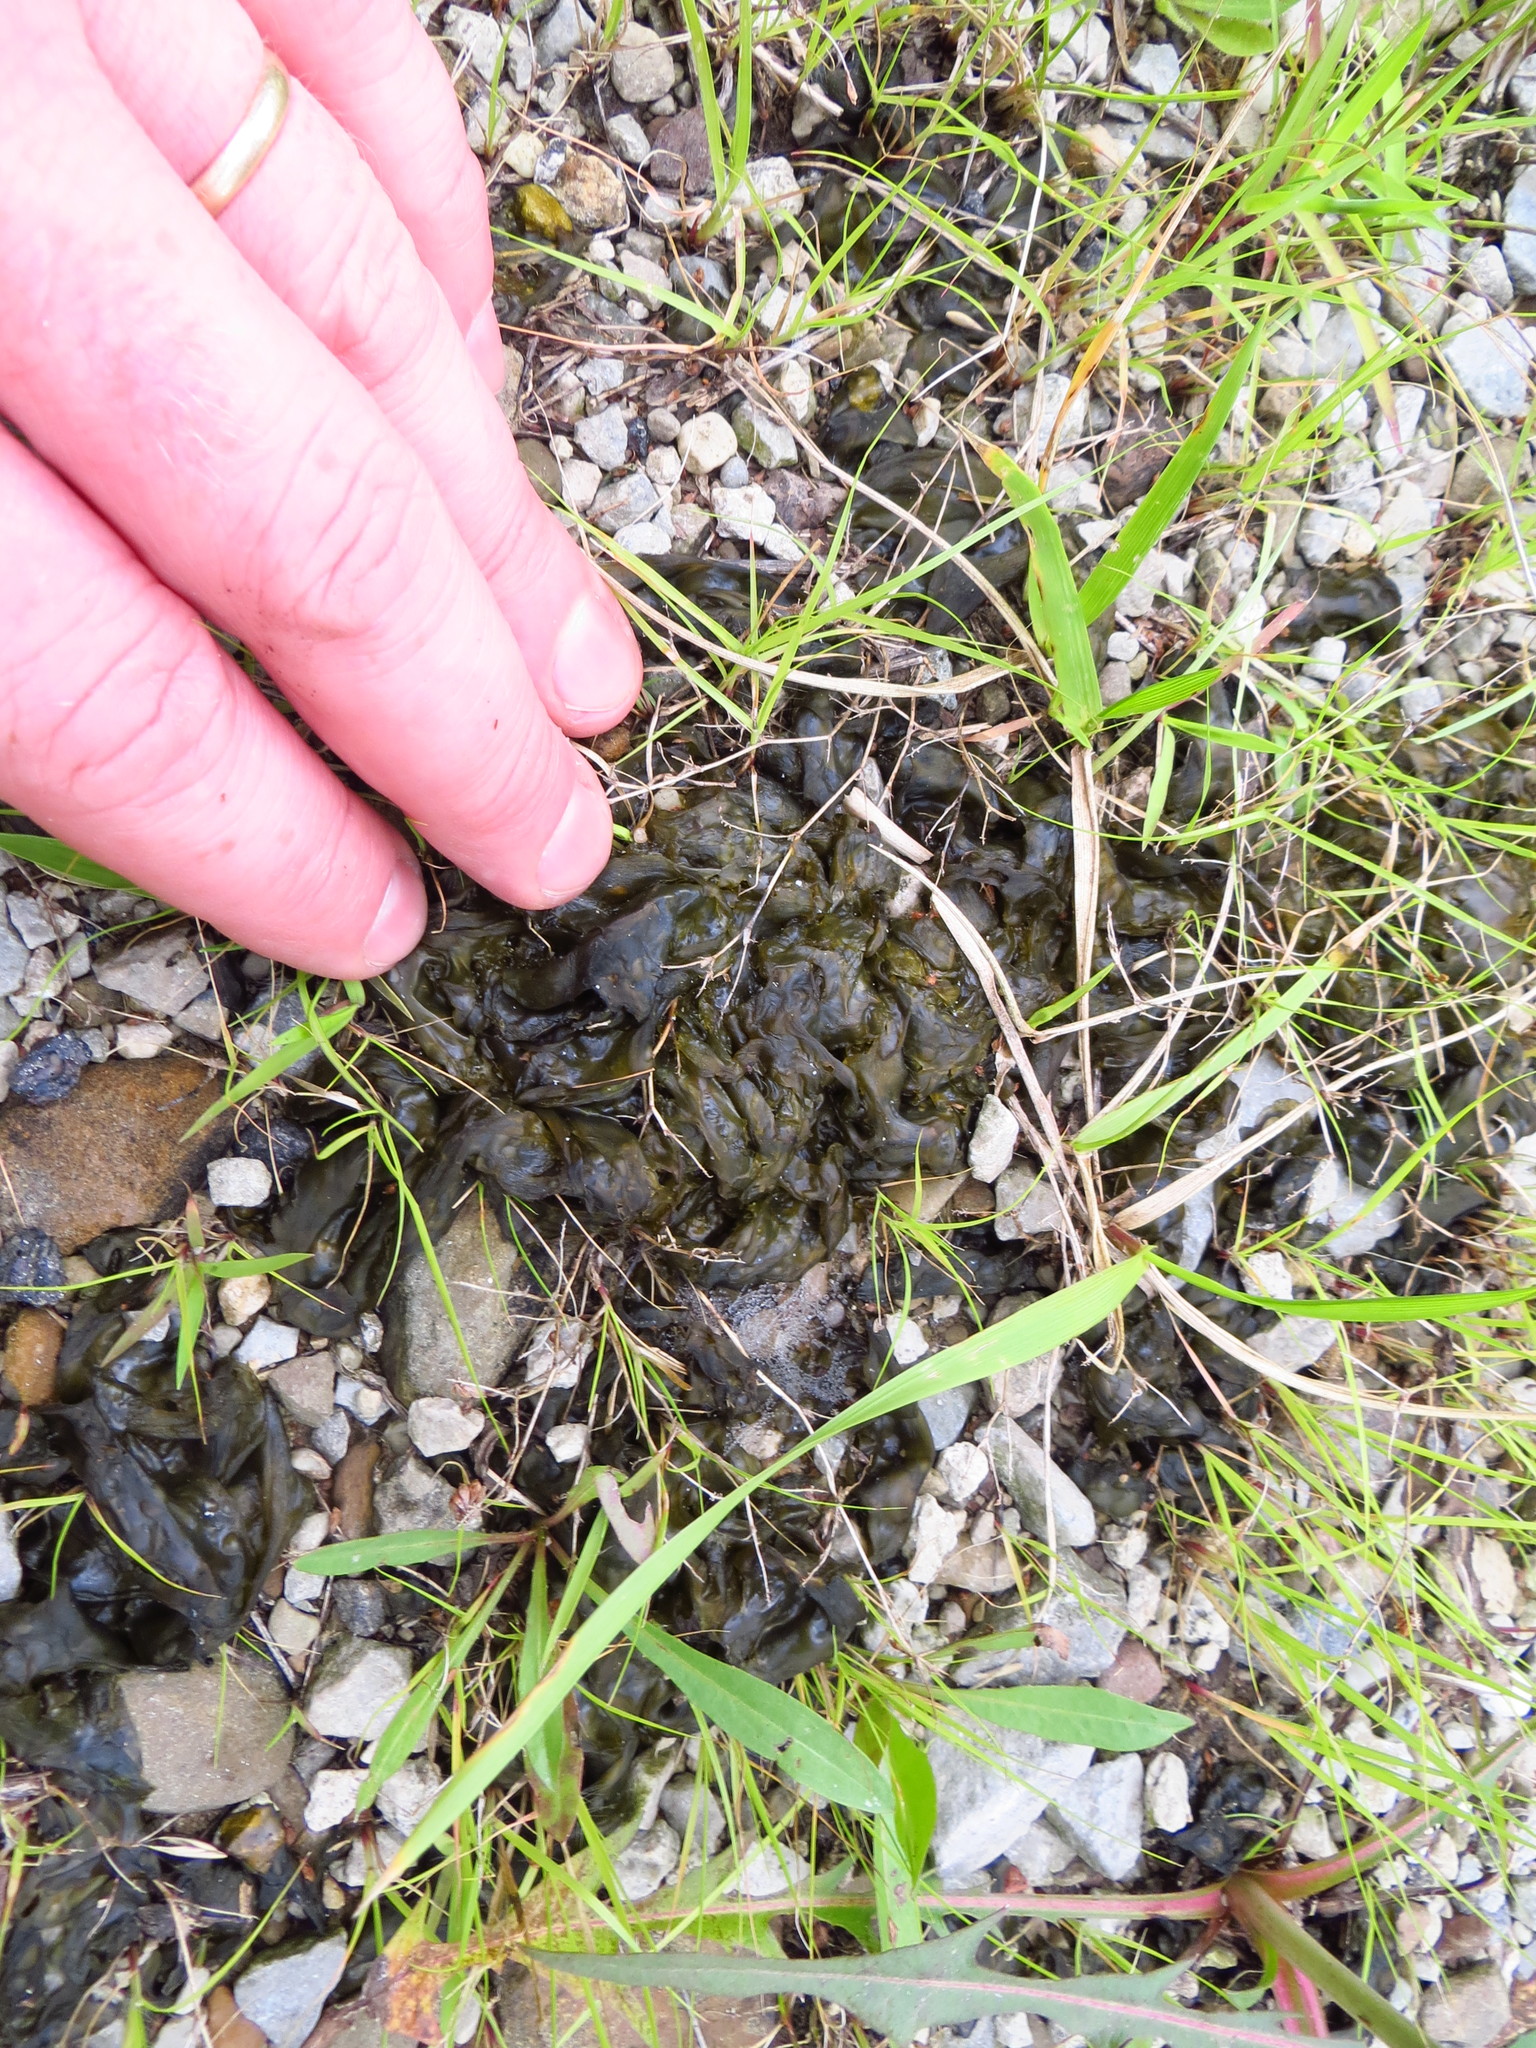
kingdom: Bacteria
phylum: Cyanobacteria
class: Cyanobacteriia
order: Cyanobacteriales
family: Nostocaceae
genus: Nostoc
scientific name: Nostoc commune
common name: Star jelly
